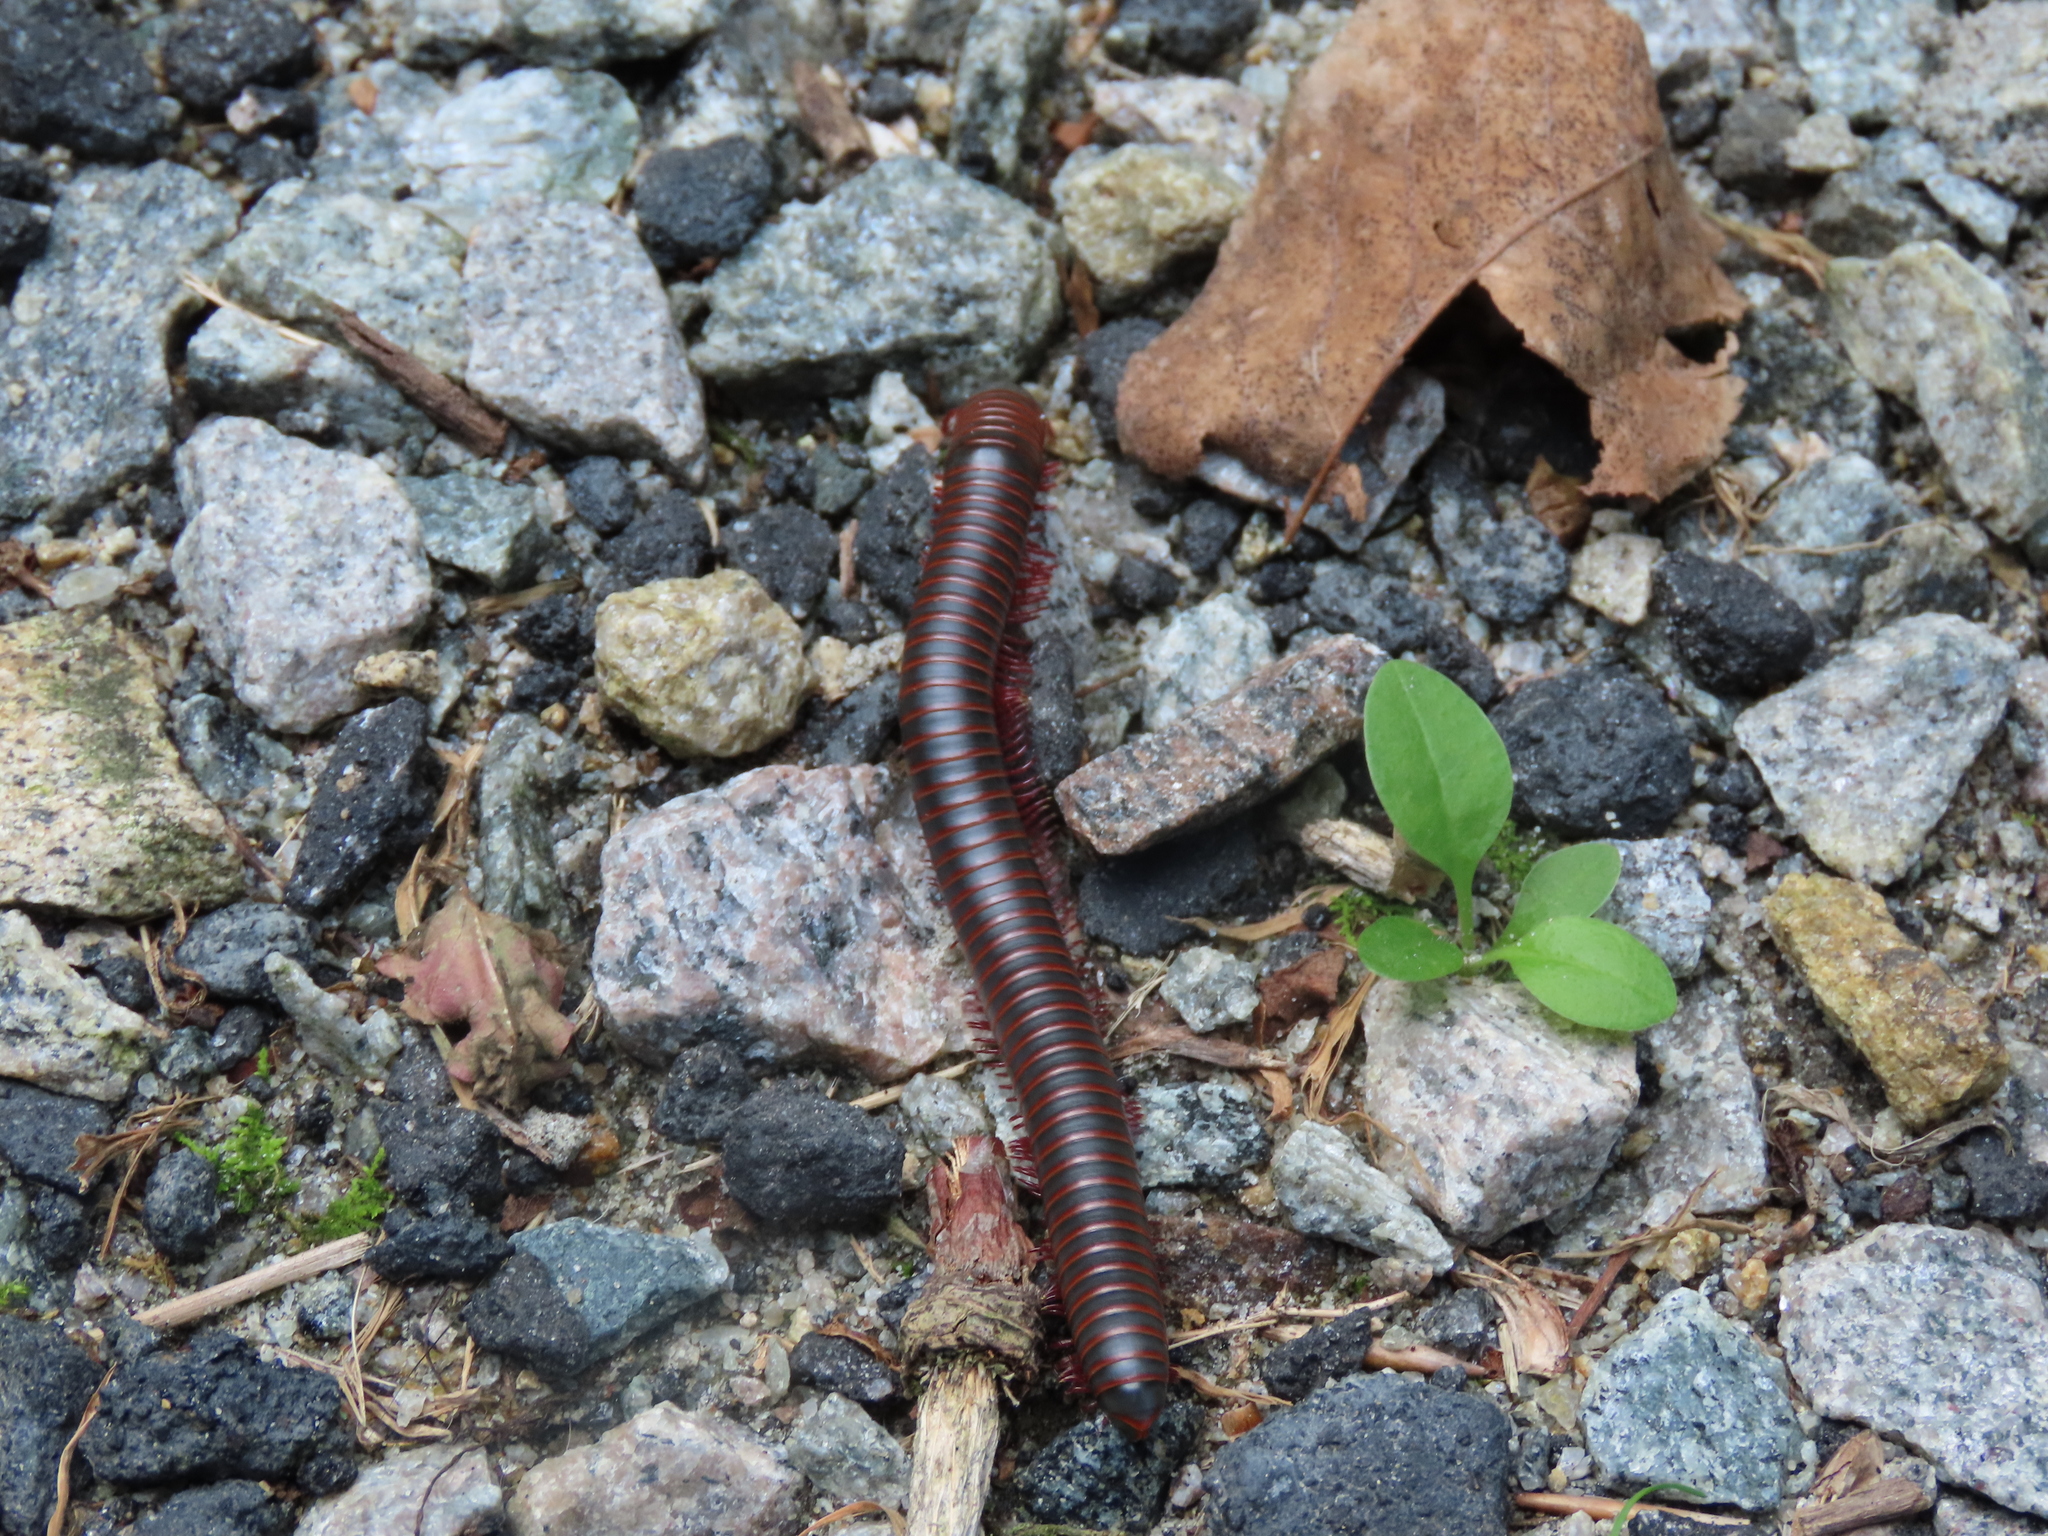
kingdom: Animalia
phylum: Arthropoda
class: Diplopoda
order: Spirobolida
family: Spirobolidae
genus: Narceus
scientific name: Narceus
